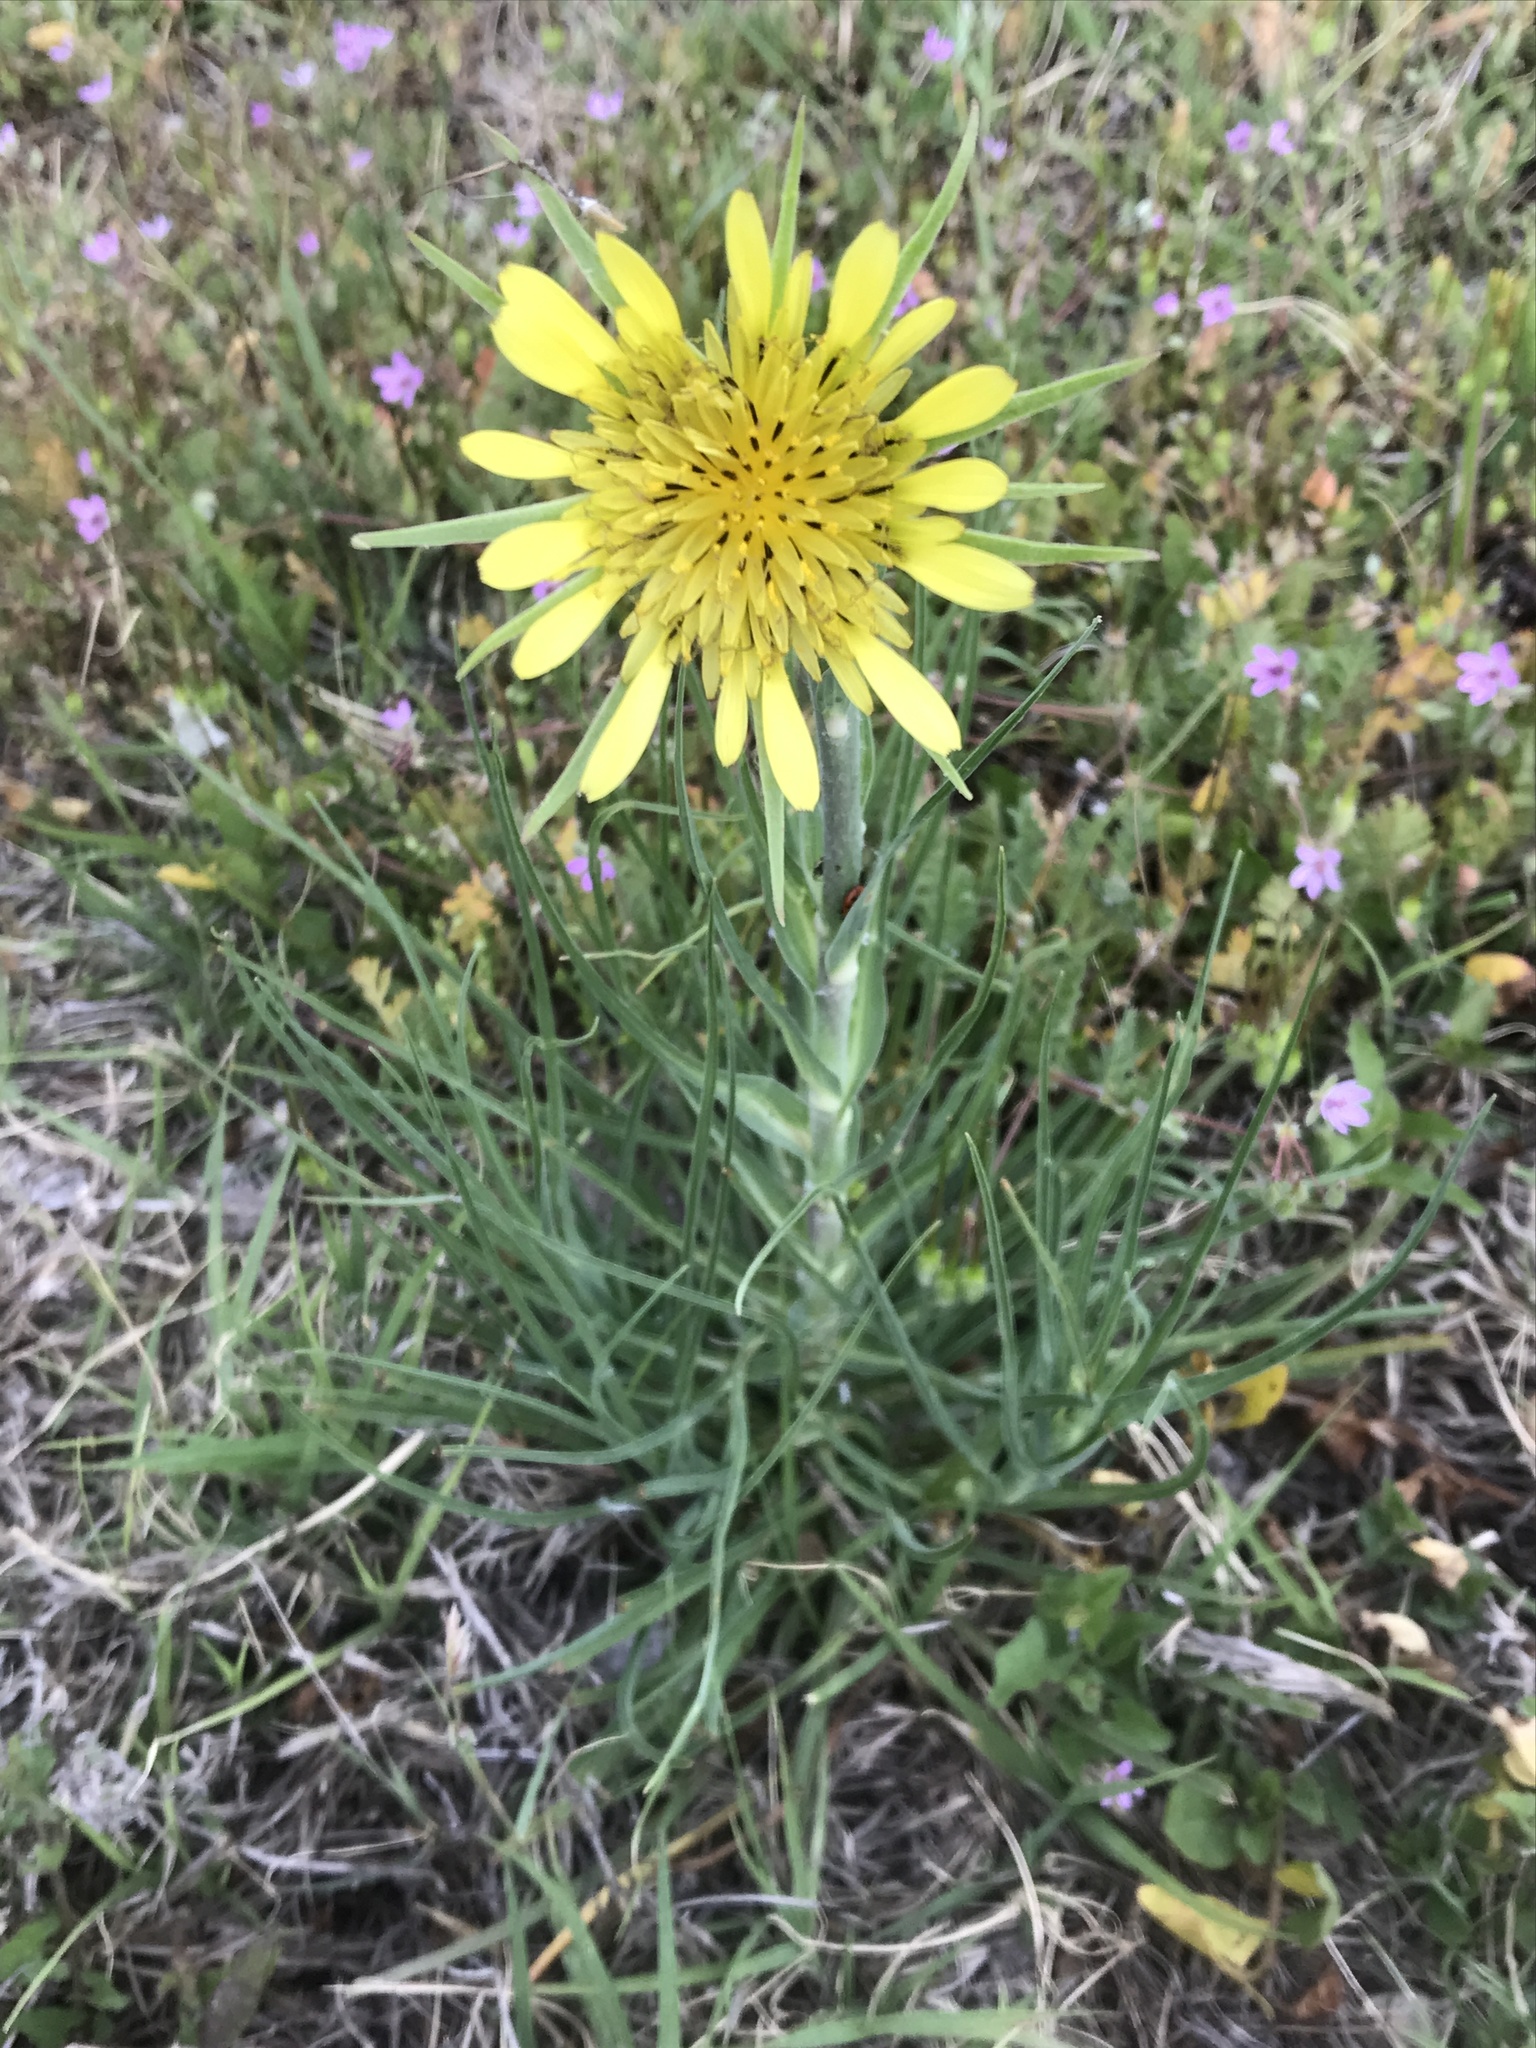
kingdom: Plantae
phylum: Tracheophyta
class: Magnoliopsida
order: Asterales
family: Asteraceae
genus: Tragopogon
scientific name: Tragopogon dubius
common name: Yellow salsify
